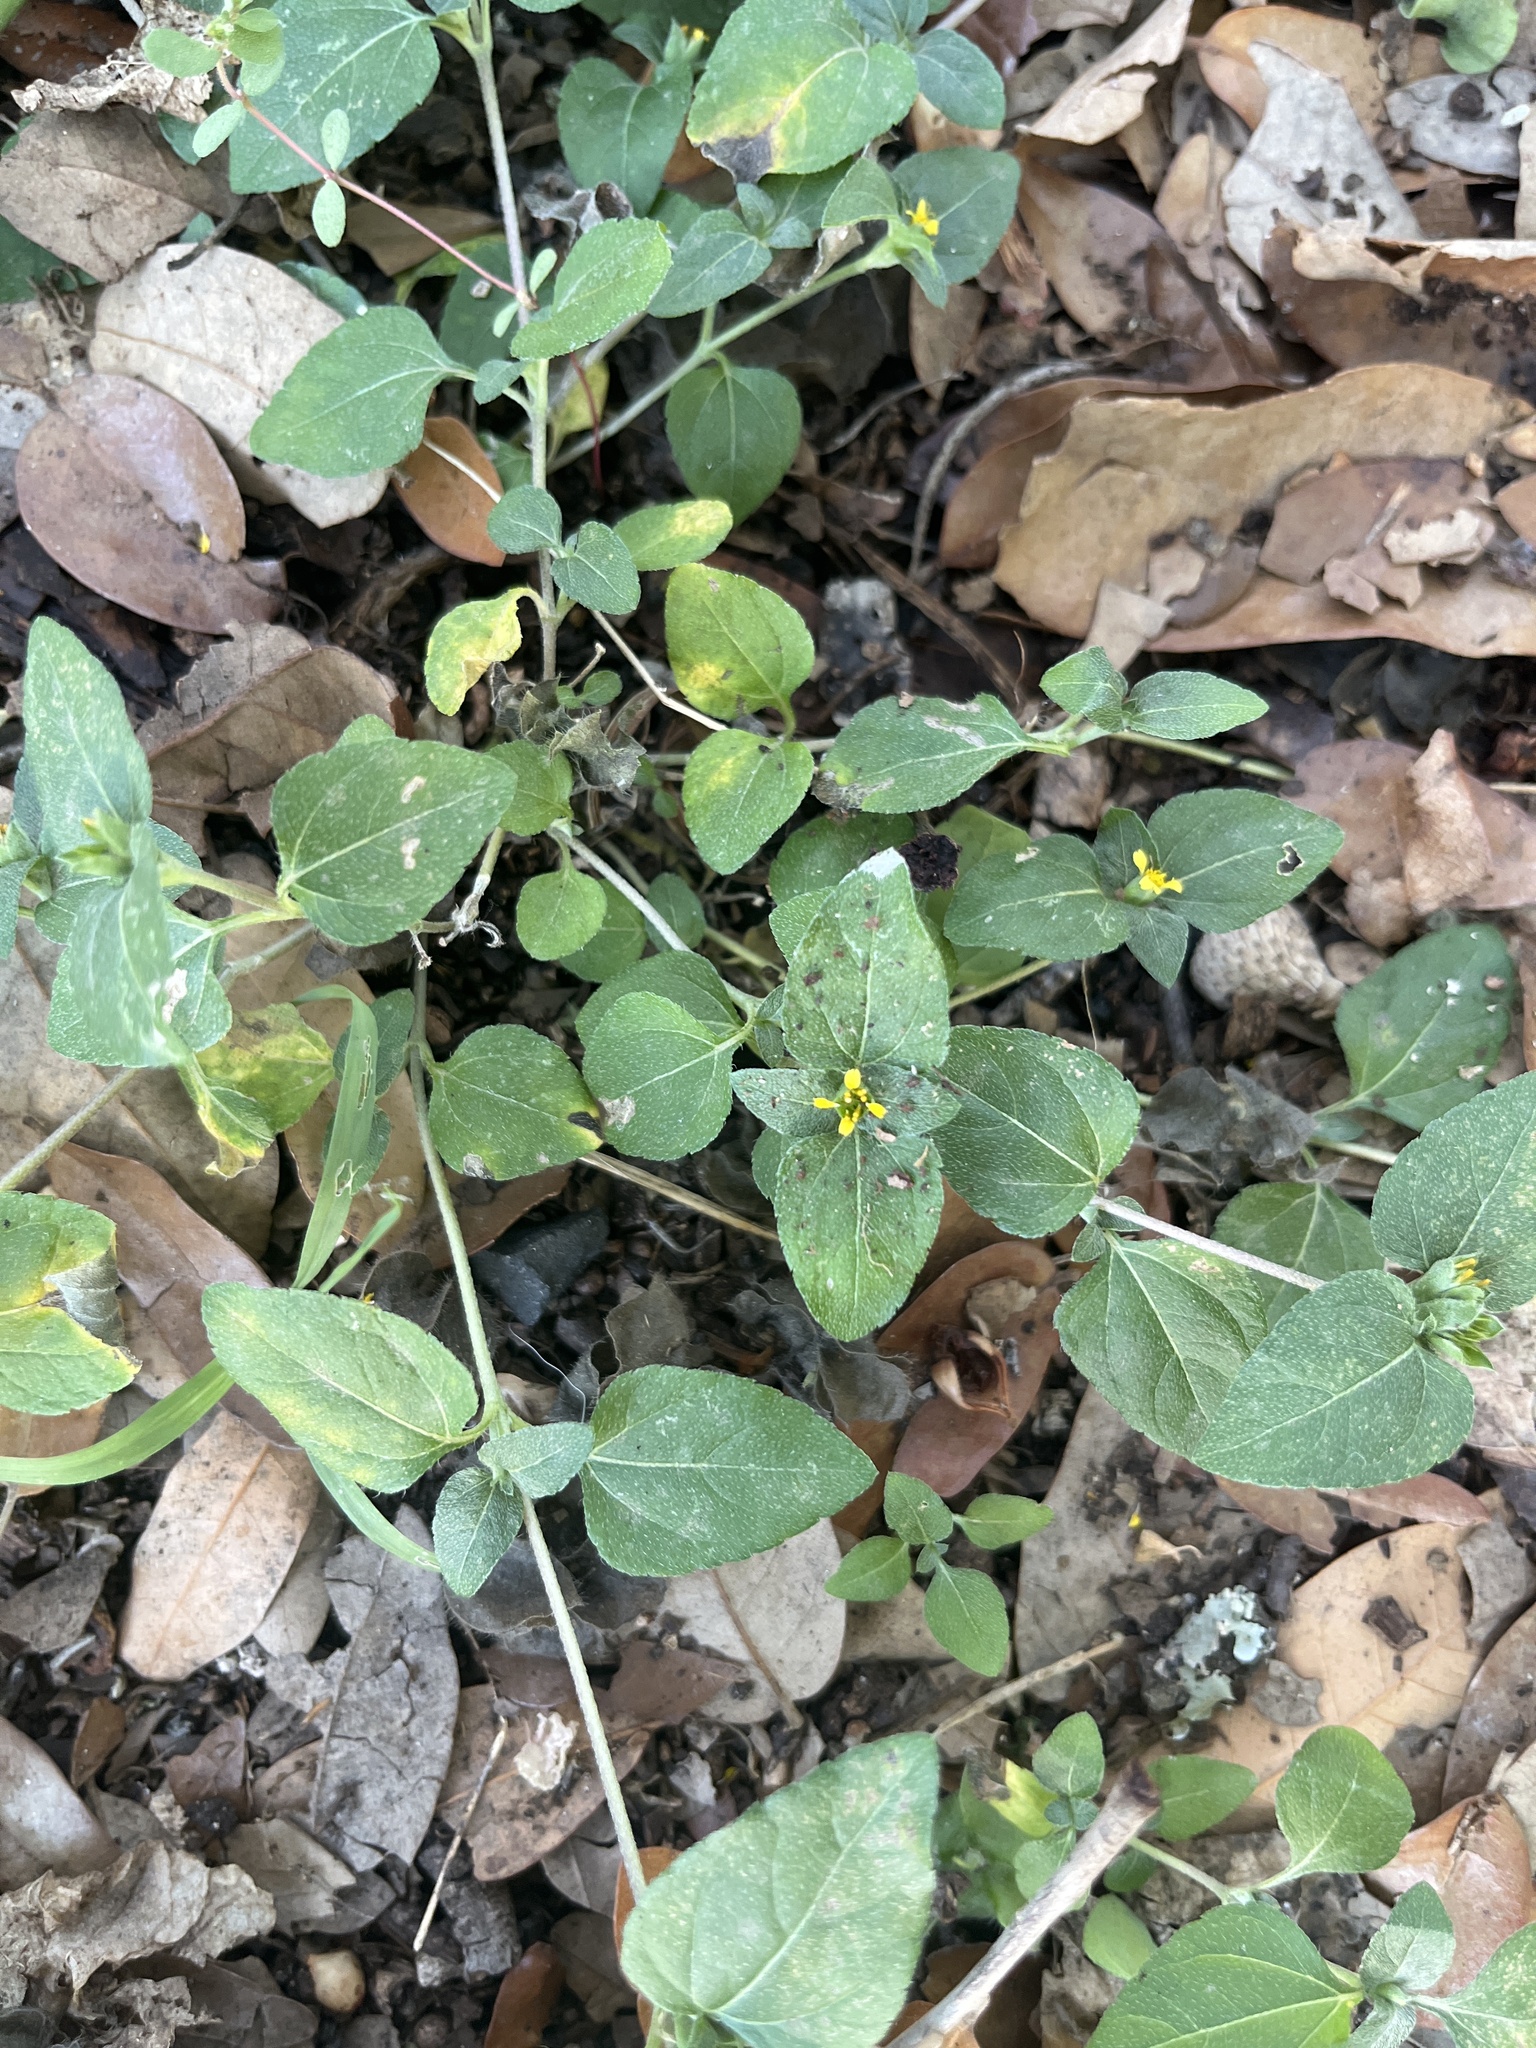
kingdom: Plantae
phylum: Tracheophyta
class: Magnoliopsida
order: Asterales
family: Asteraceae
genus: Calyptocarpus
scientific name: Calyptocarpus vialis
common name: Straggler daisy
